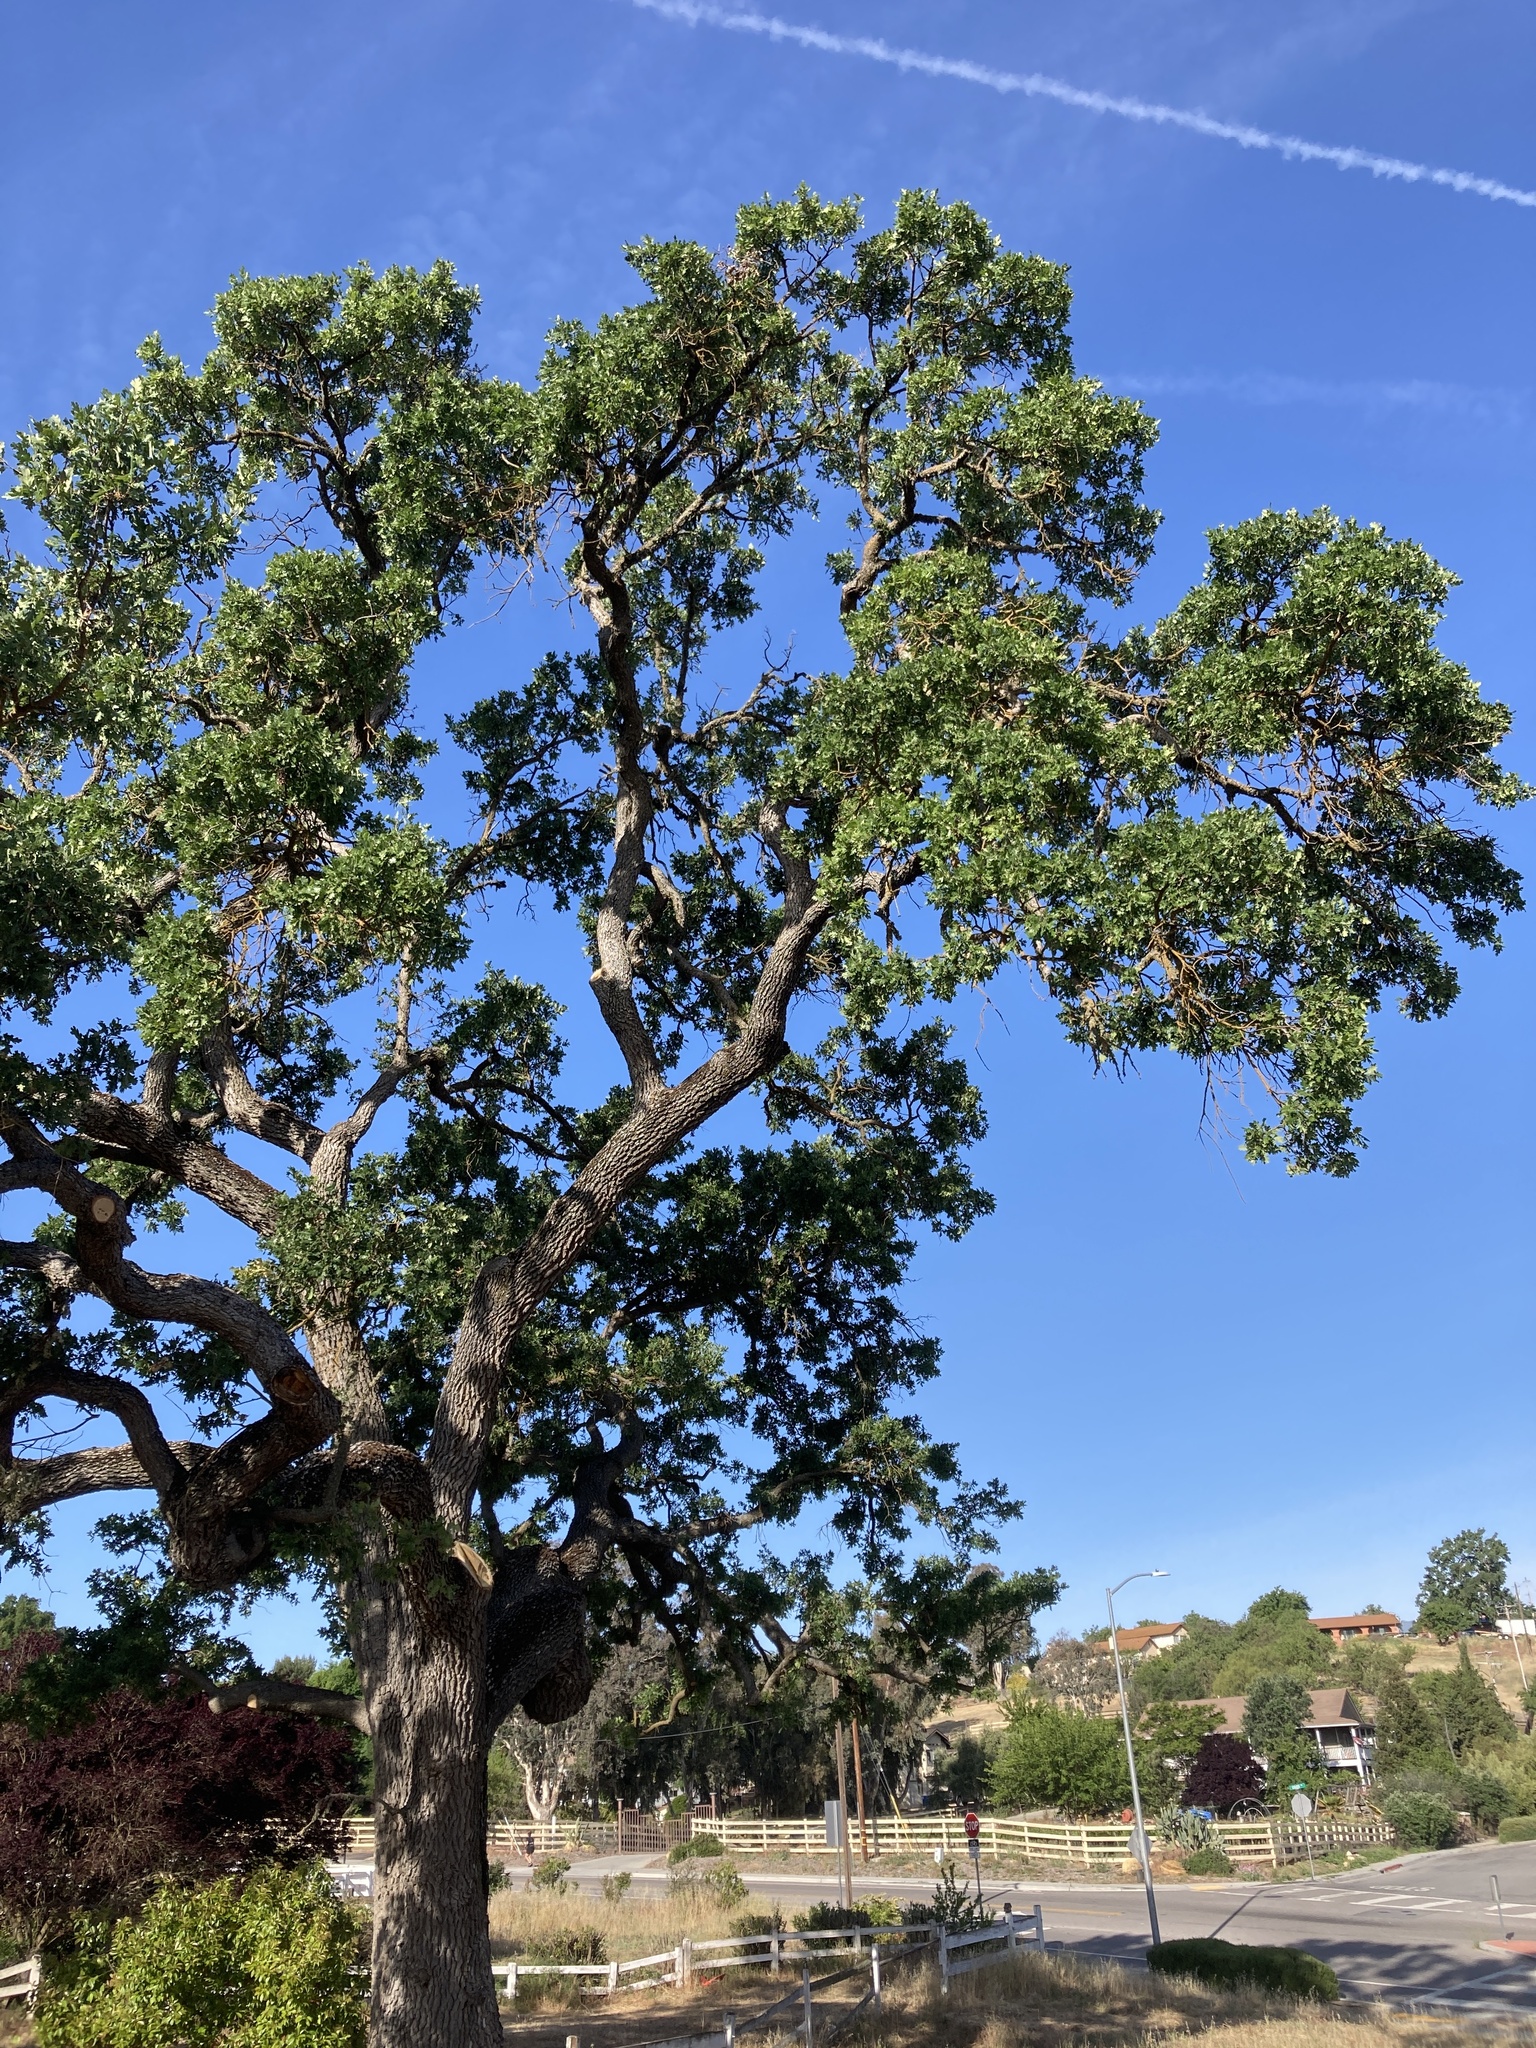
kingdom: Plantae
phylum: Tracheophyta
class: Magnoliopsida
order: Fagales
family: Fagaceae
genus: Quercus
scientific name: Quercus lobata
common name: Valley oak
